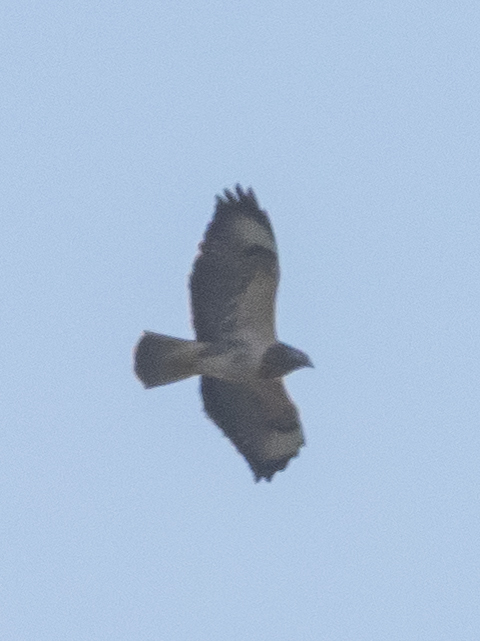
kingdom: Animalia
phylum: Chordata
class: Aves
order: Accipitriformes
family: Accipitridae
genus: Buteo
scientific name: Buteo buteo
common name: Common buzzard
